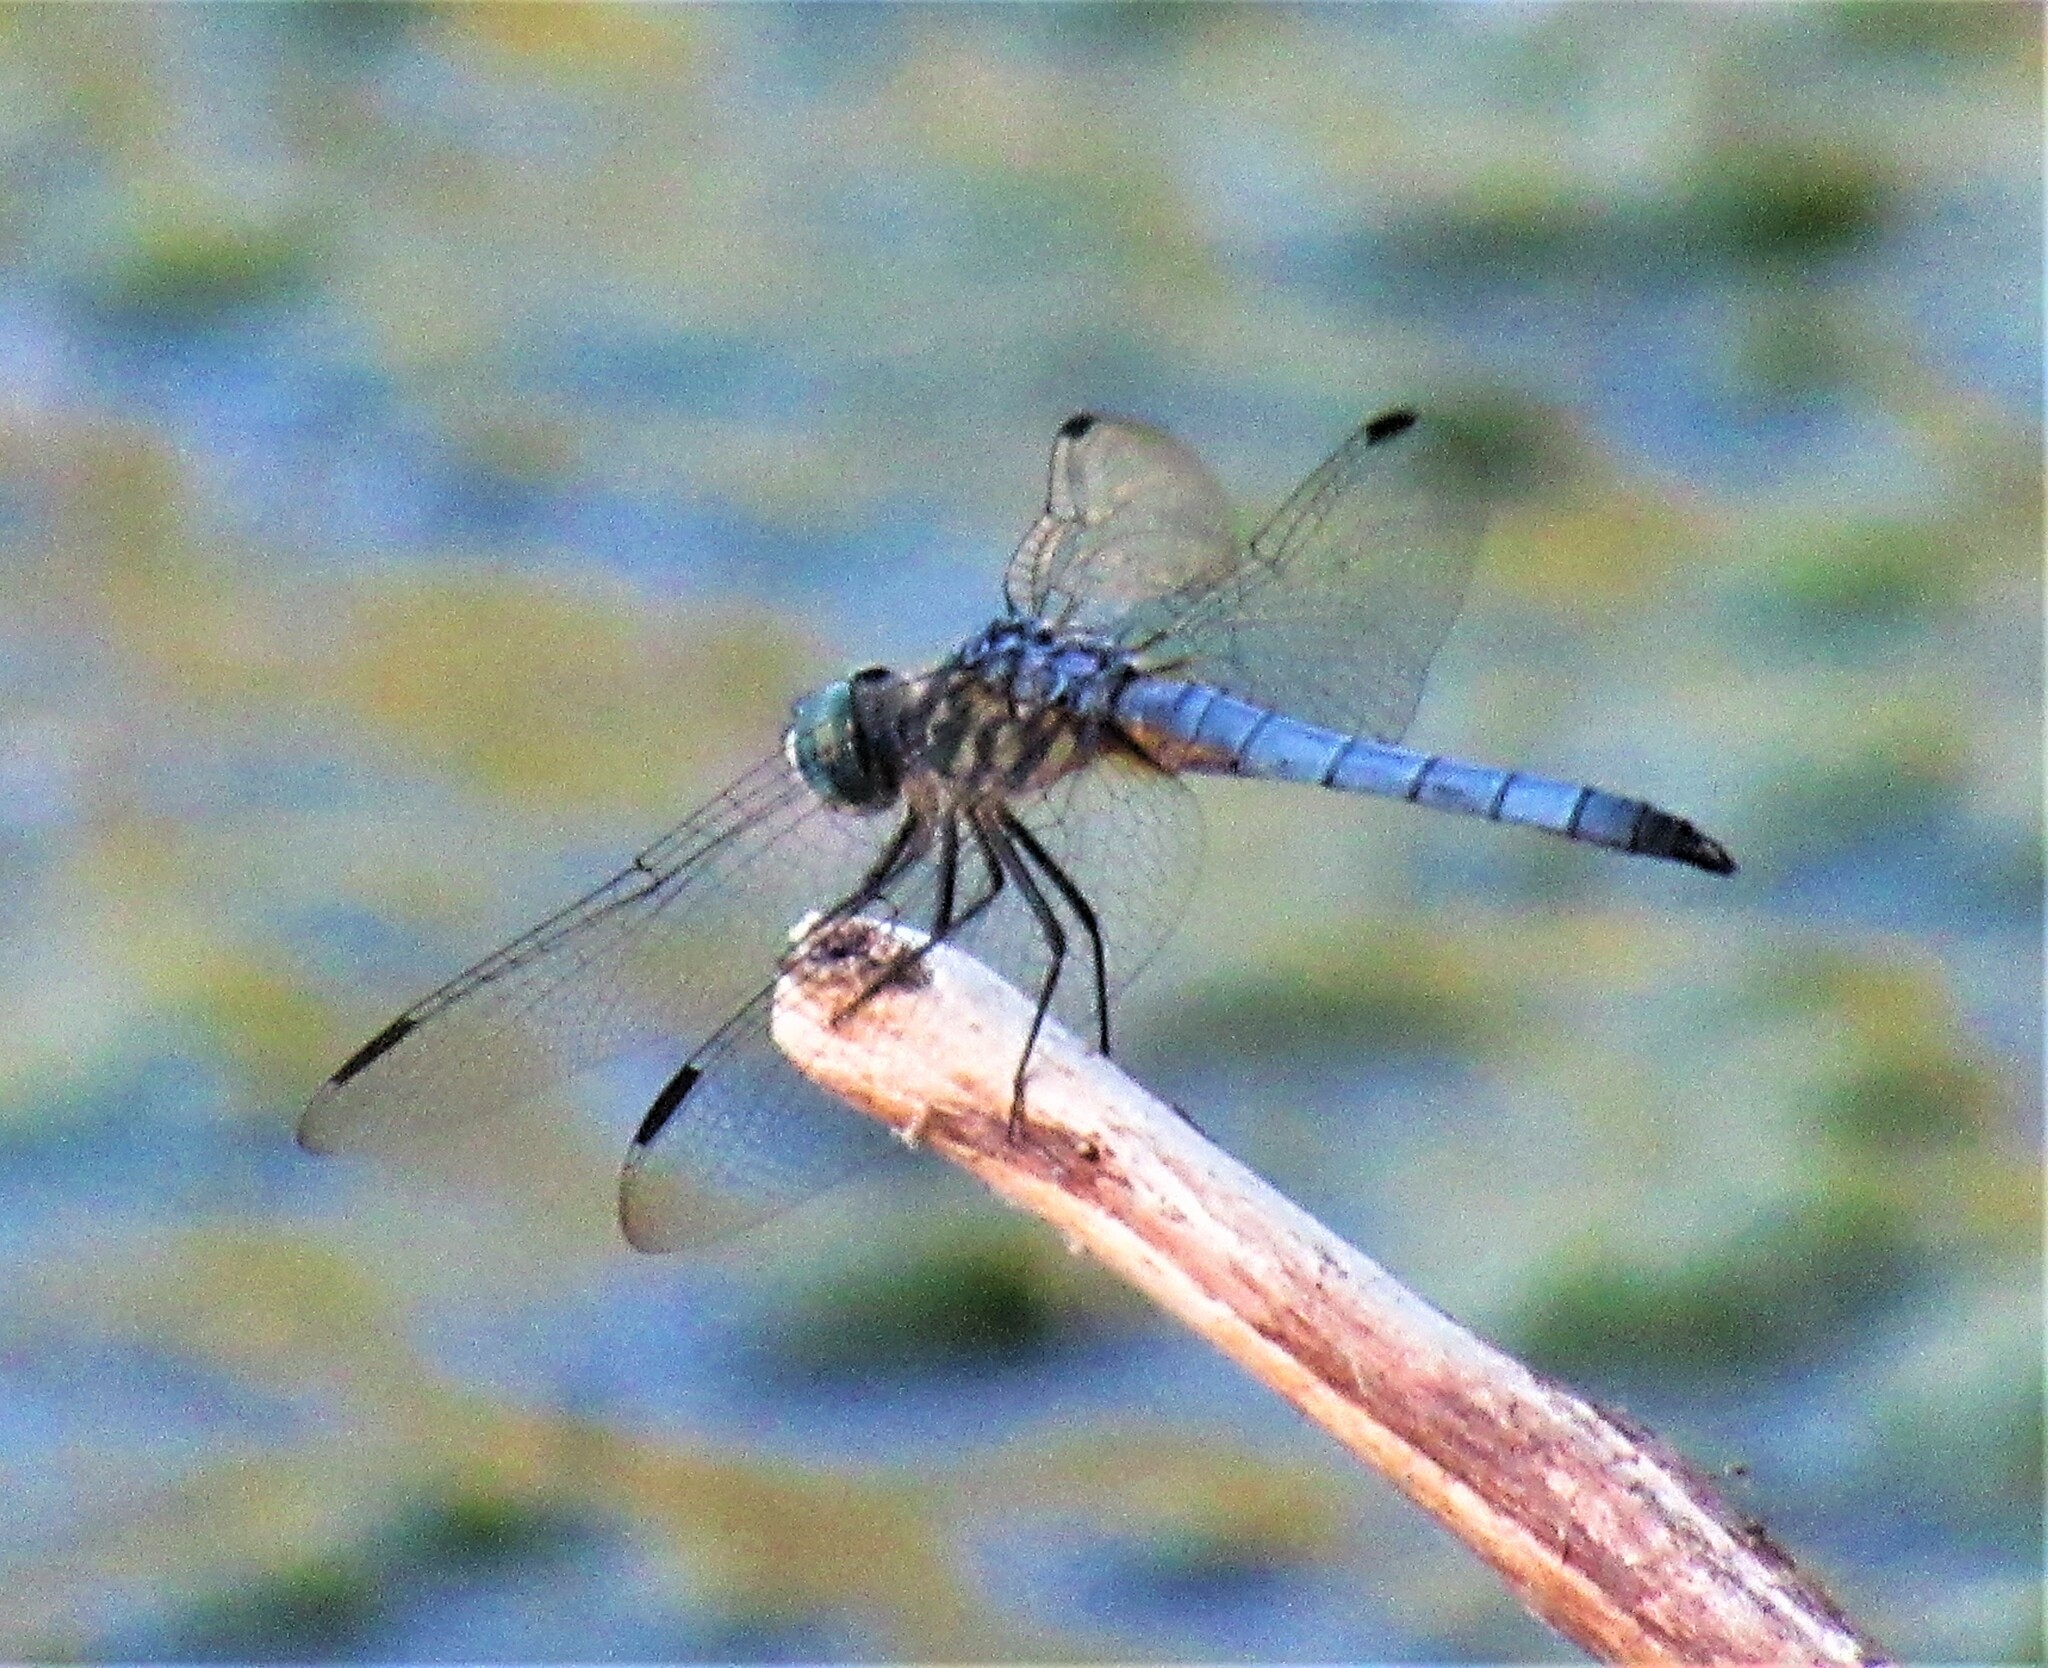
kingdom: Animalia
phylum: Arthropoda
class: Insecta
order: Odonata
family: Libellulidae
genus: Pachydiplax
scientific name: Pachydiplax longipennis
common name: Blue dasher
